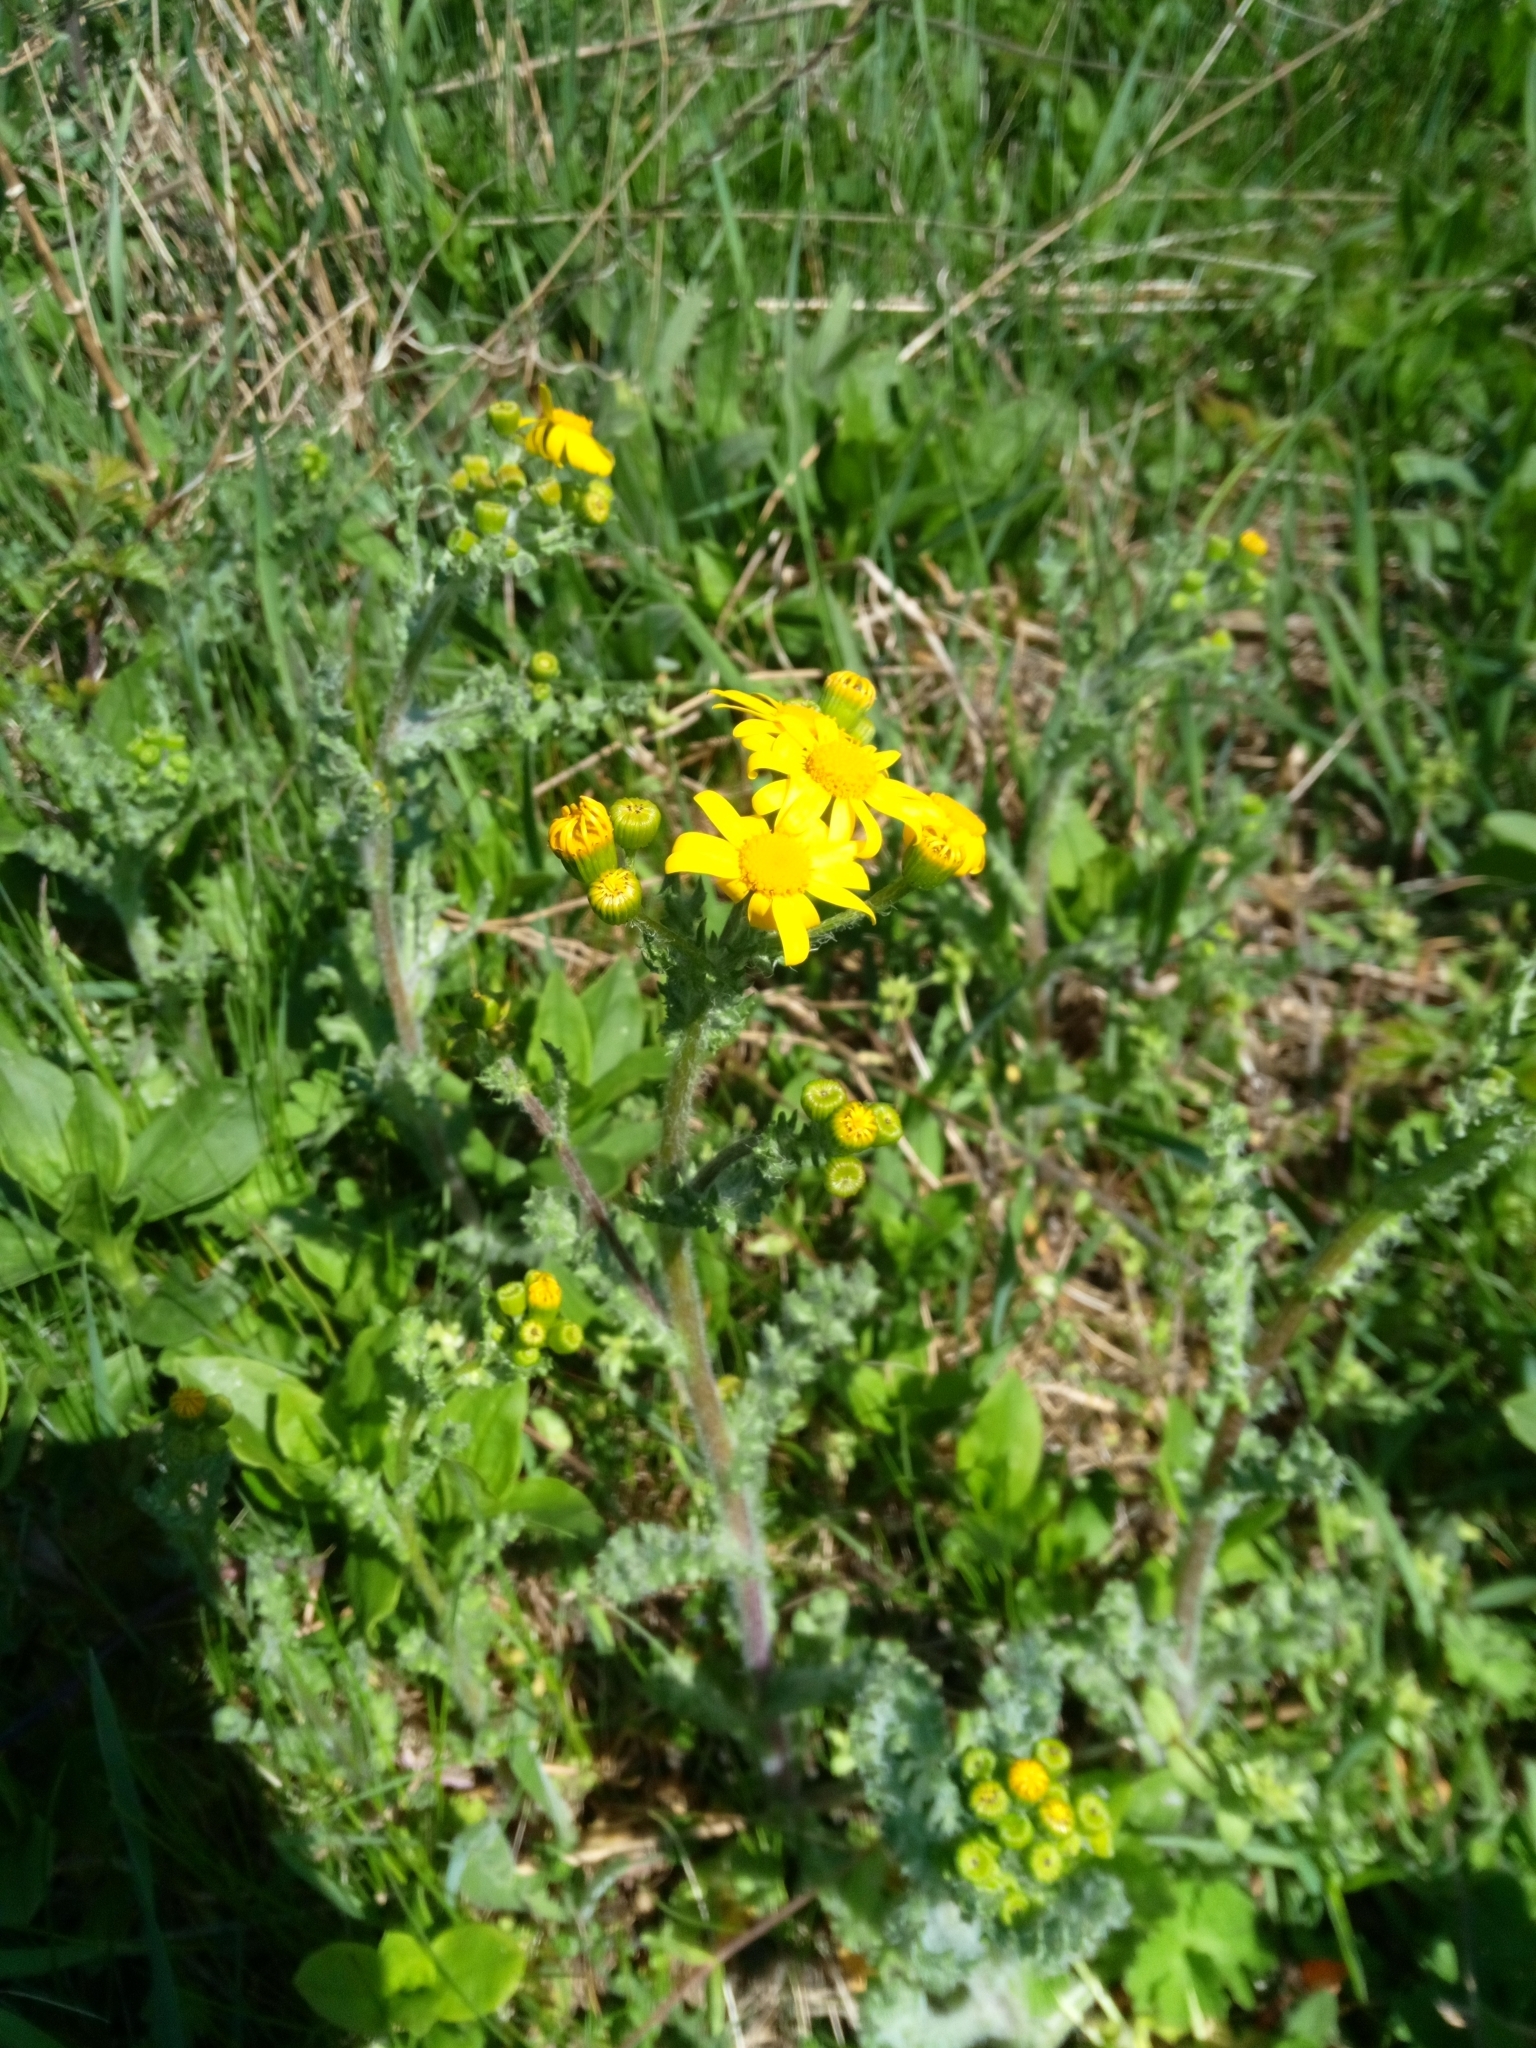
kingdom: Plantae
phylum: Tracheophyta
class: Magnoliopsida
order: Asterales
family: Asteraceae
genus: Senecio
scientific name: Senecio vernalis
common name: Eastern groundsel
